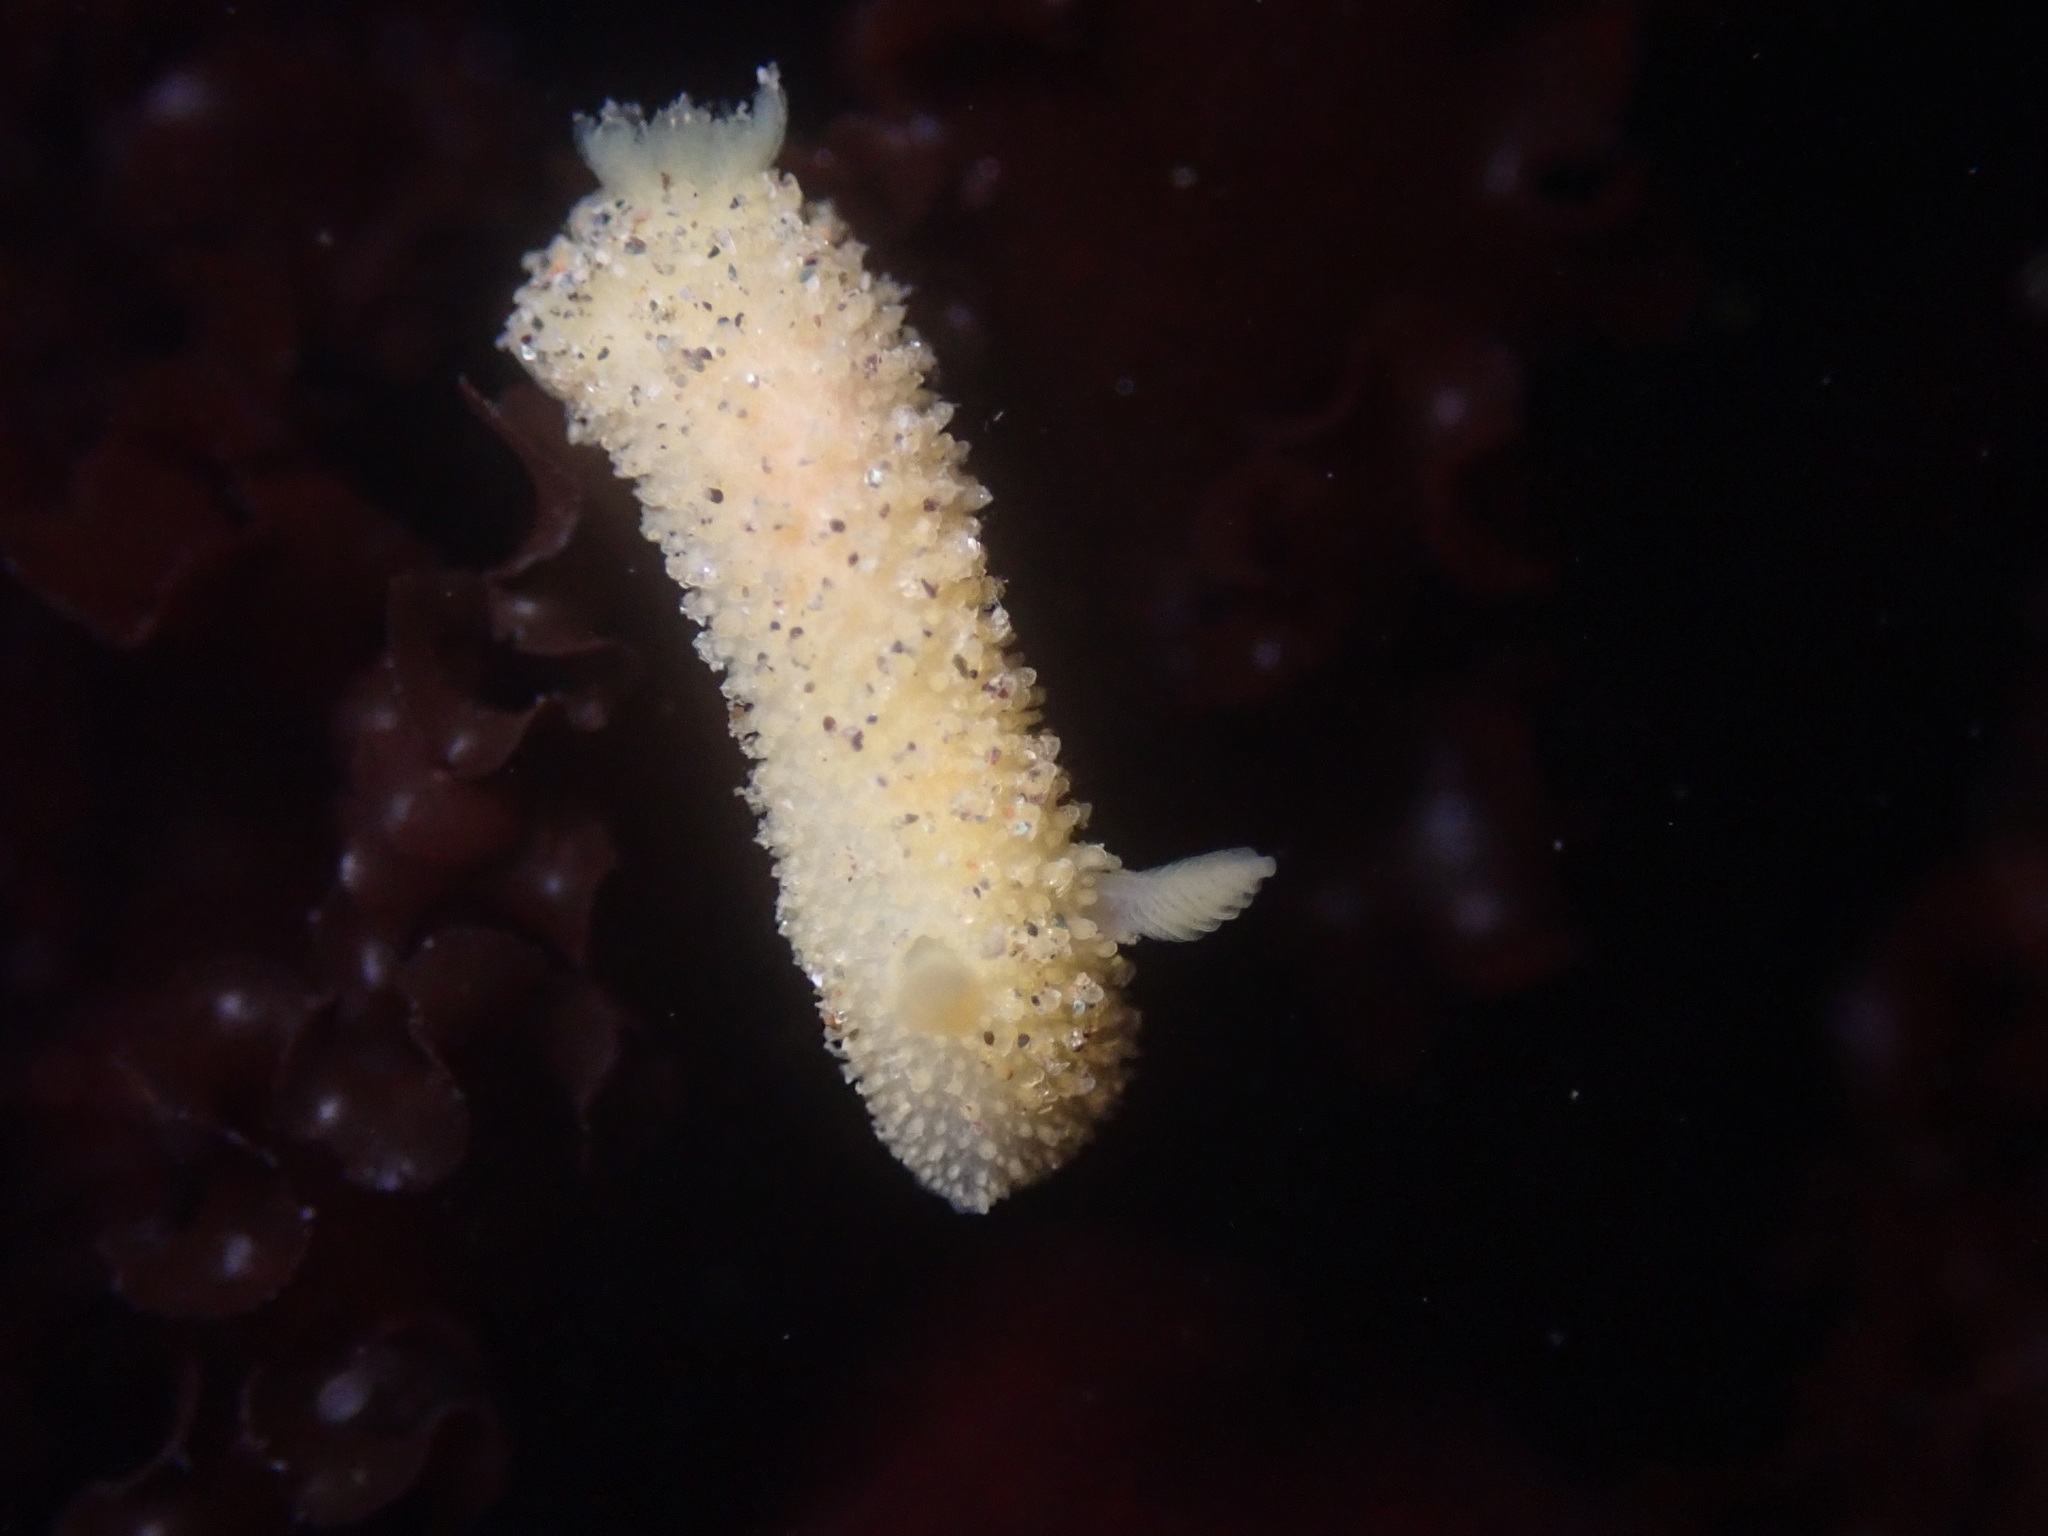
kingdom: Animalia
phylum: Mollusca
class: Gastropoda
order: Nudibranchia
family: Dorididae
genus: Doris
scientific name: Doris montereyensis
